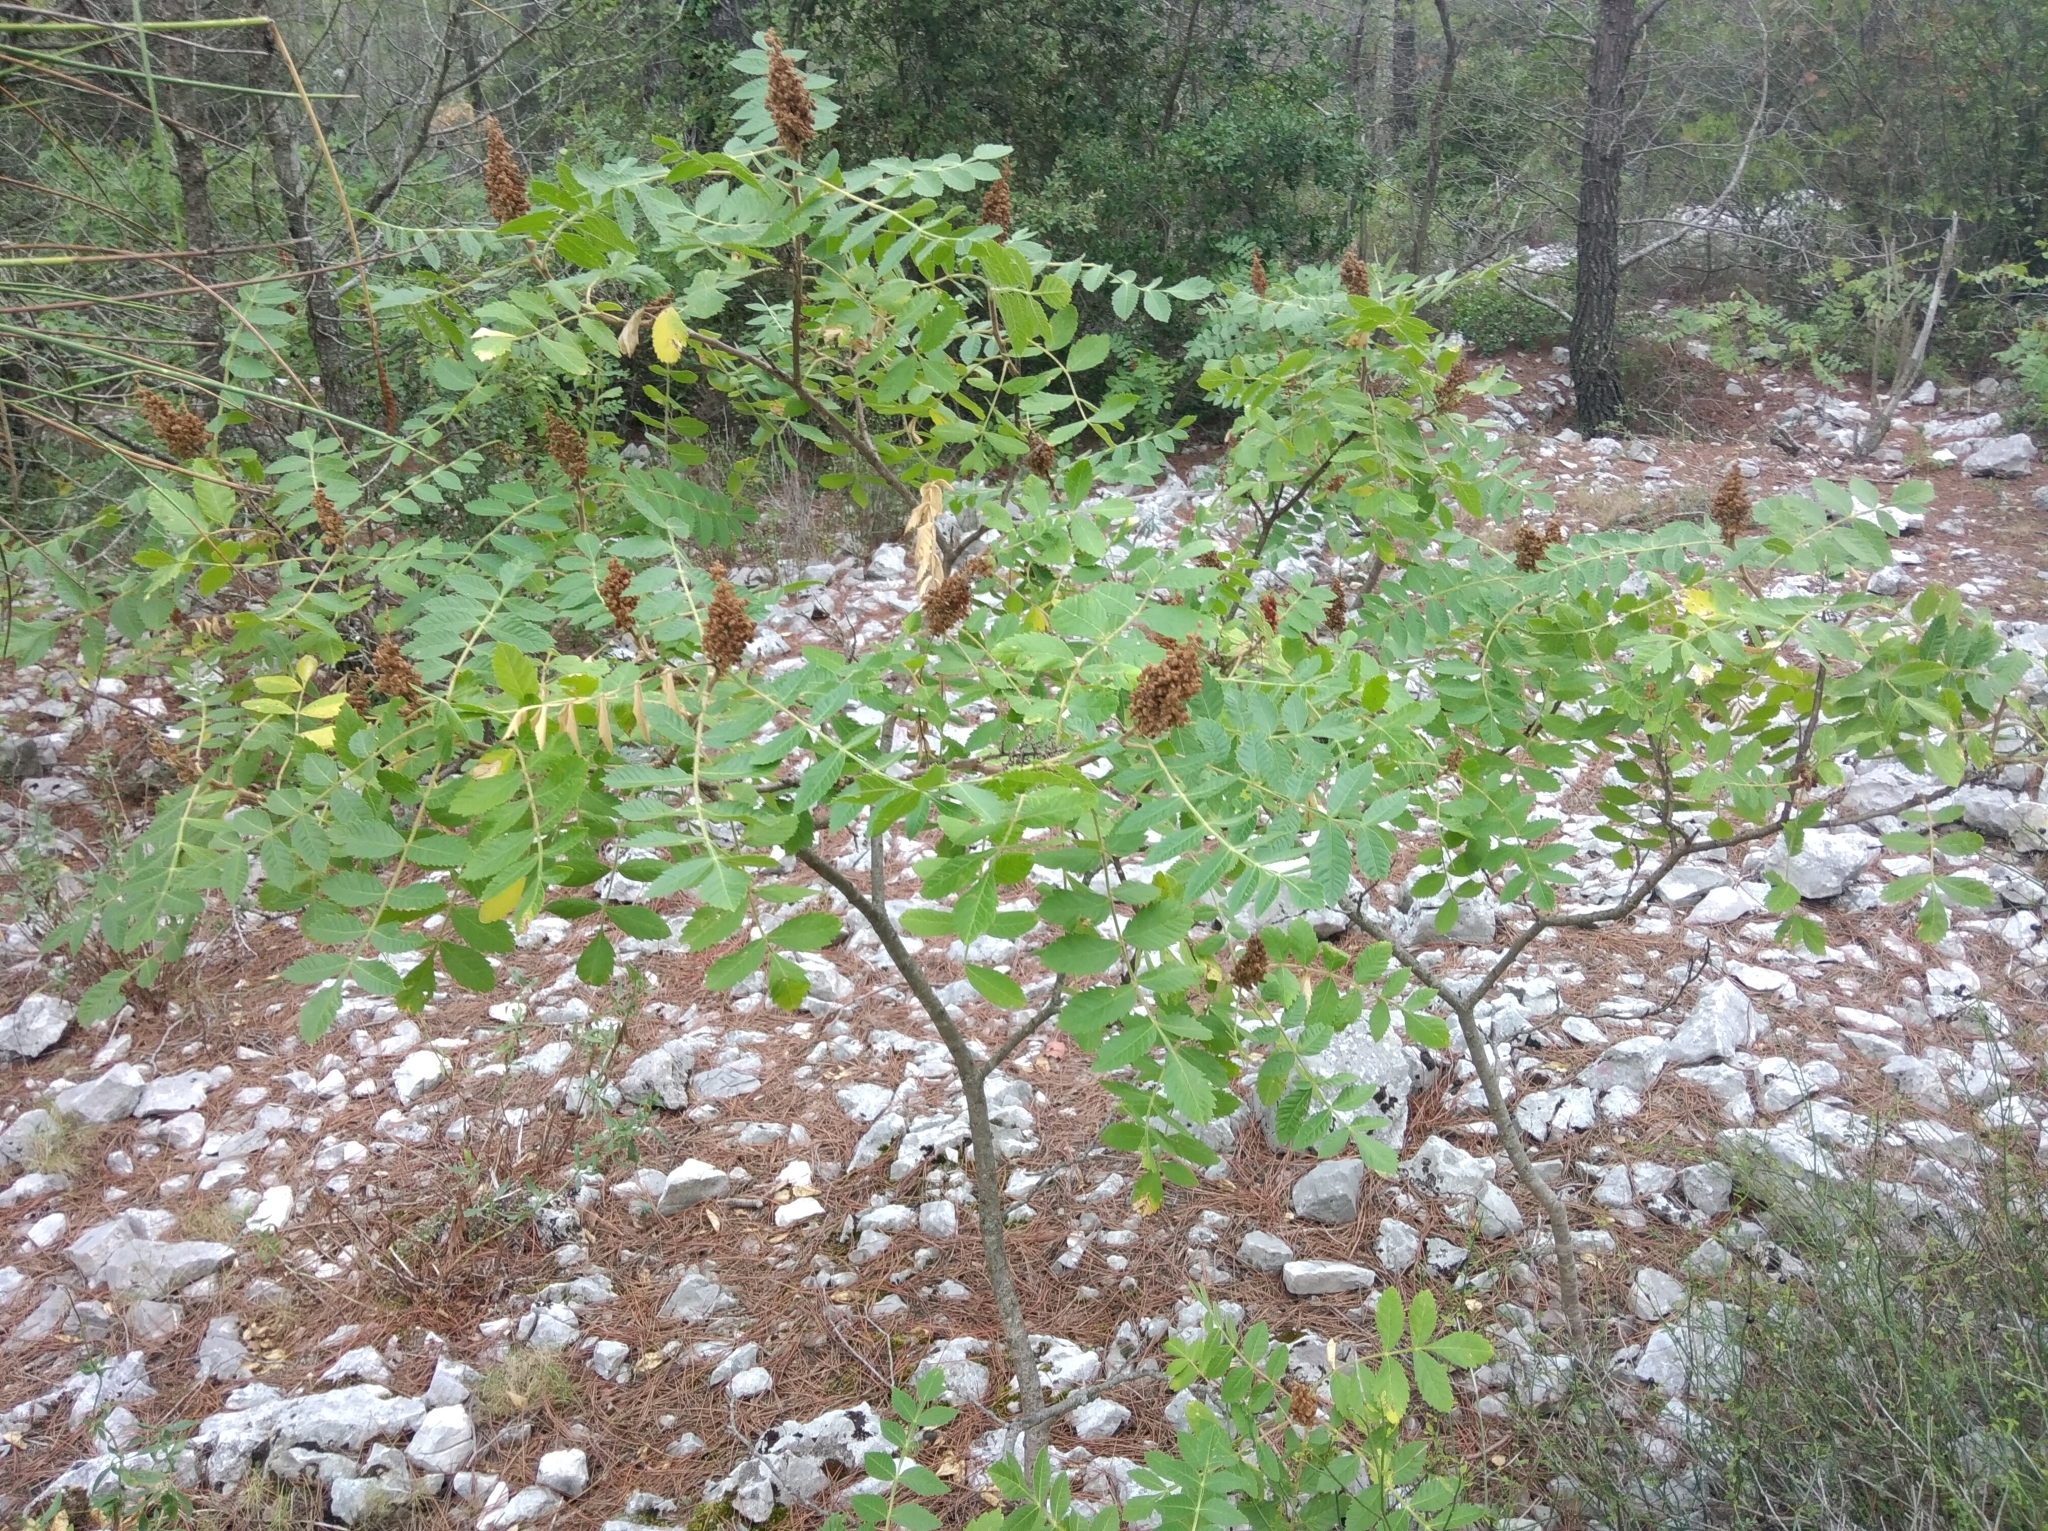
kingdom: Plantae
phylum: Tracheophyta
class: Magnoliopsida
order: Sapindales
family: Anacardiaceae
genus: Rhus
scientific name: Rhus typhina
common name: Staghorn sumac
